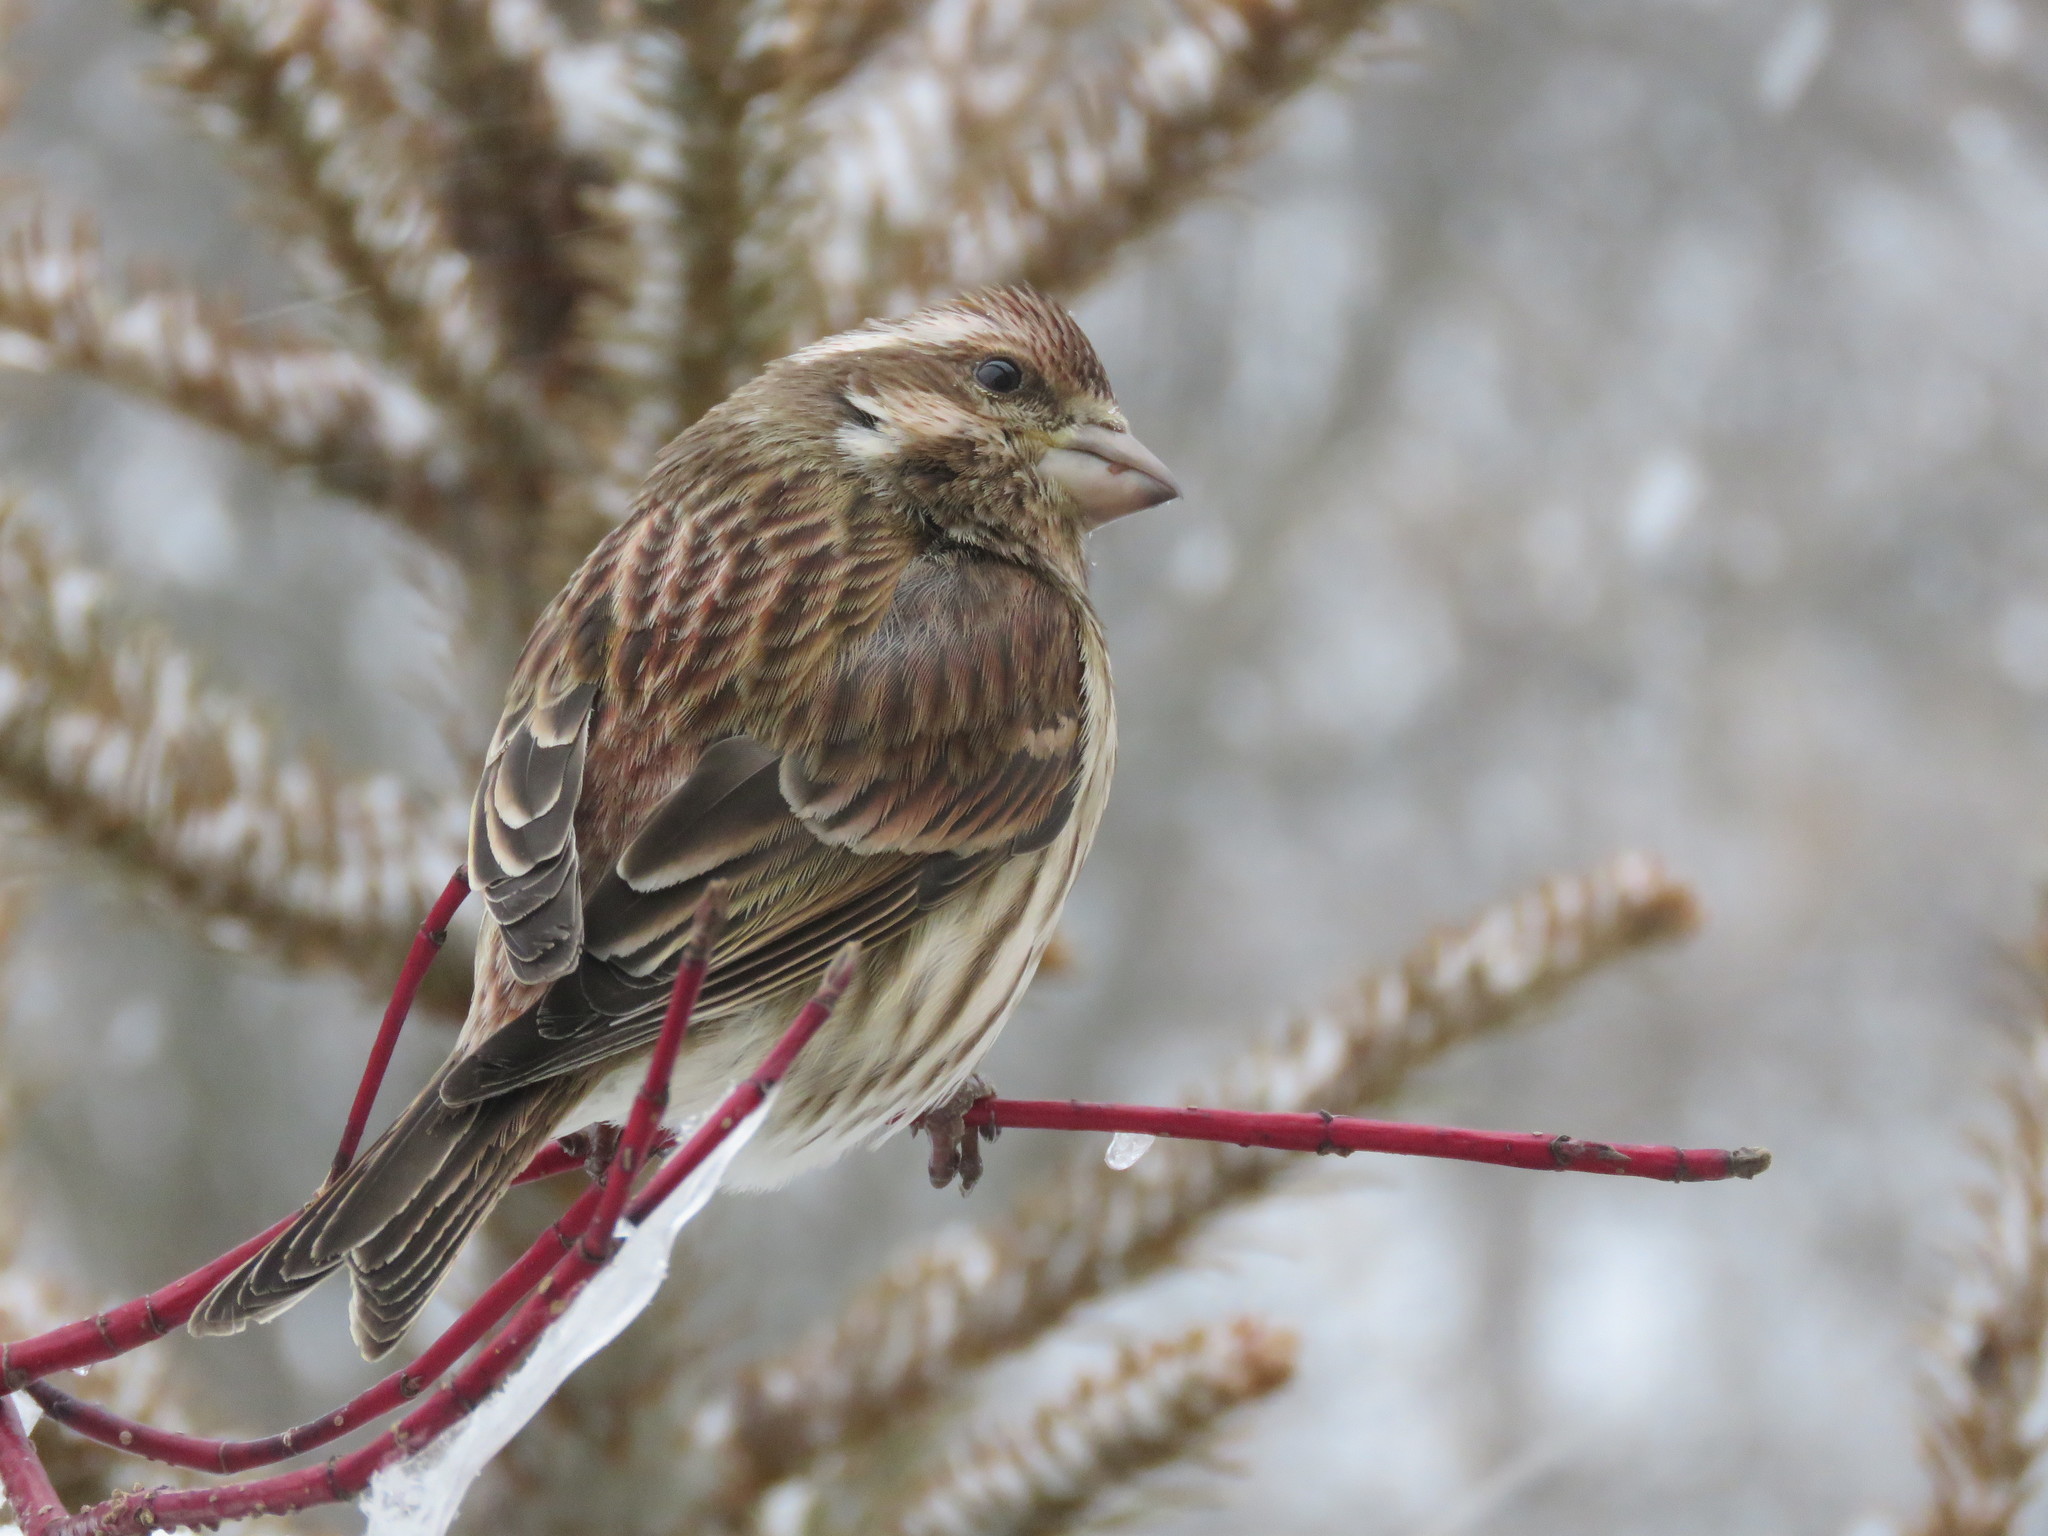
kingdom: Animalia
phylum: Chordata
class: Aves
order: Passeriformes
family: Fringillidae
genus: Haemorhous
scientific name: Haemorhous purpureus
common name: Purple finch
